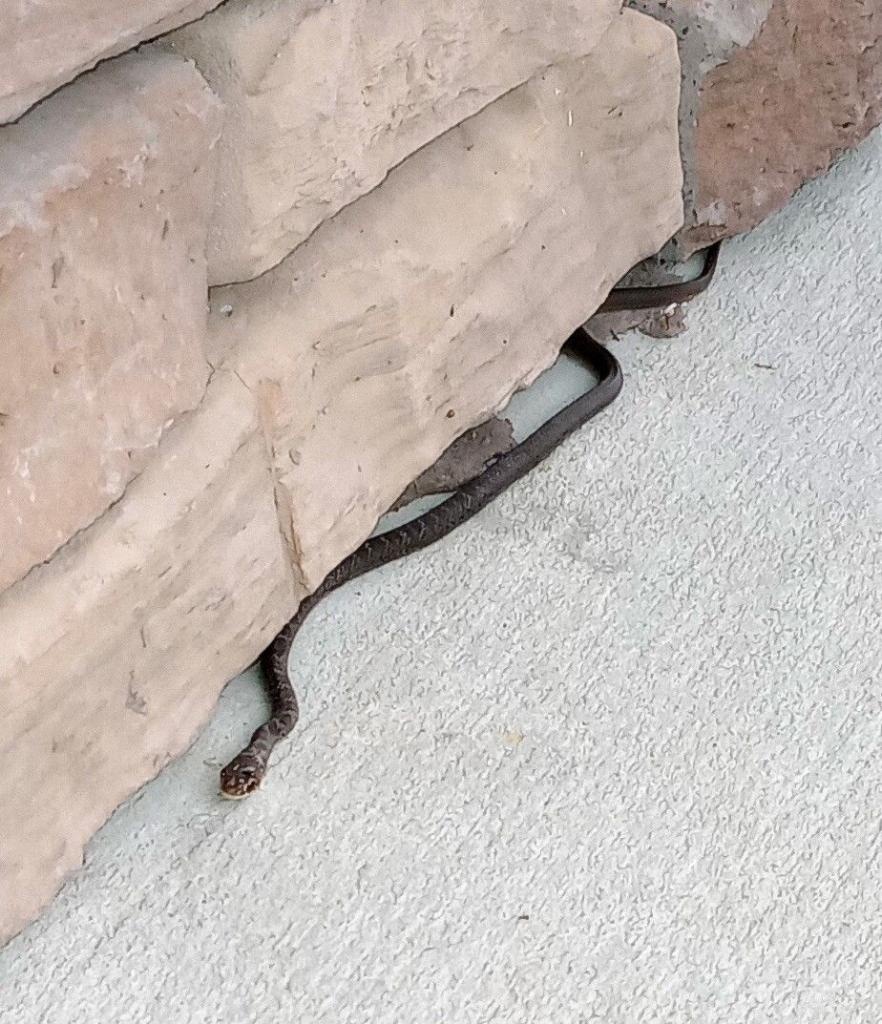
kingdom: Animalia
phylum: Chordata
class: Squamata
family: Colubridae
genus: Coluber
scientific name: Coluber constrictor
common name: Eastern racer
